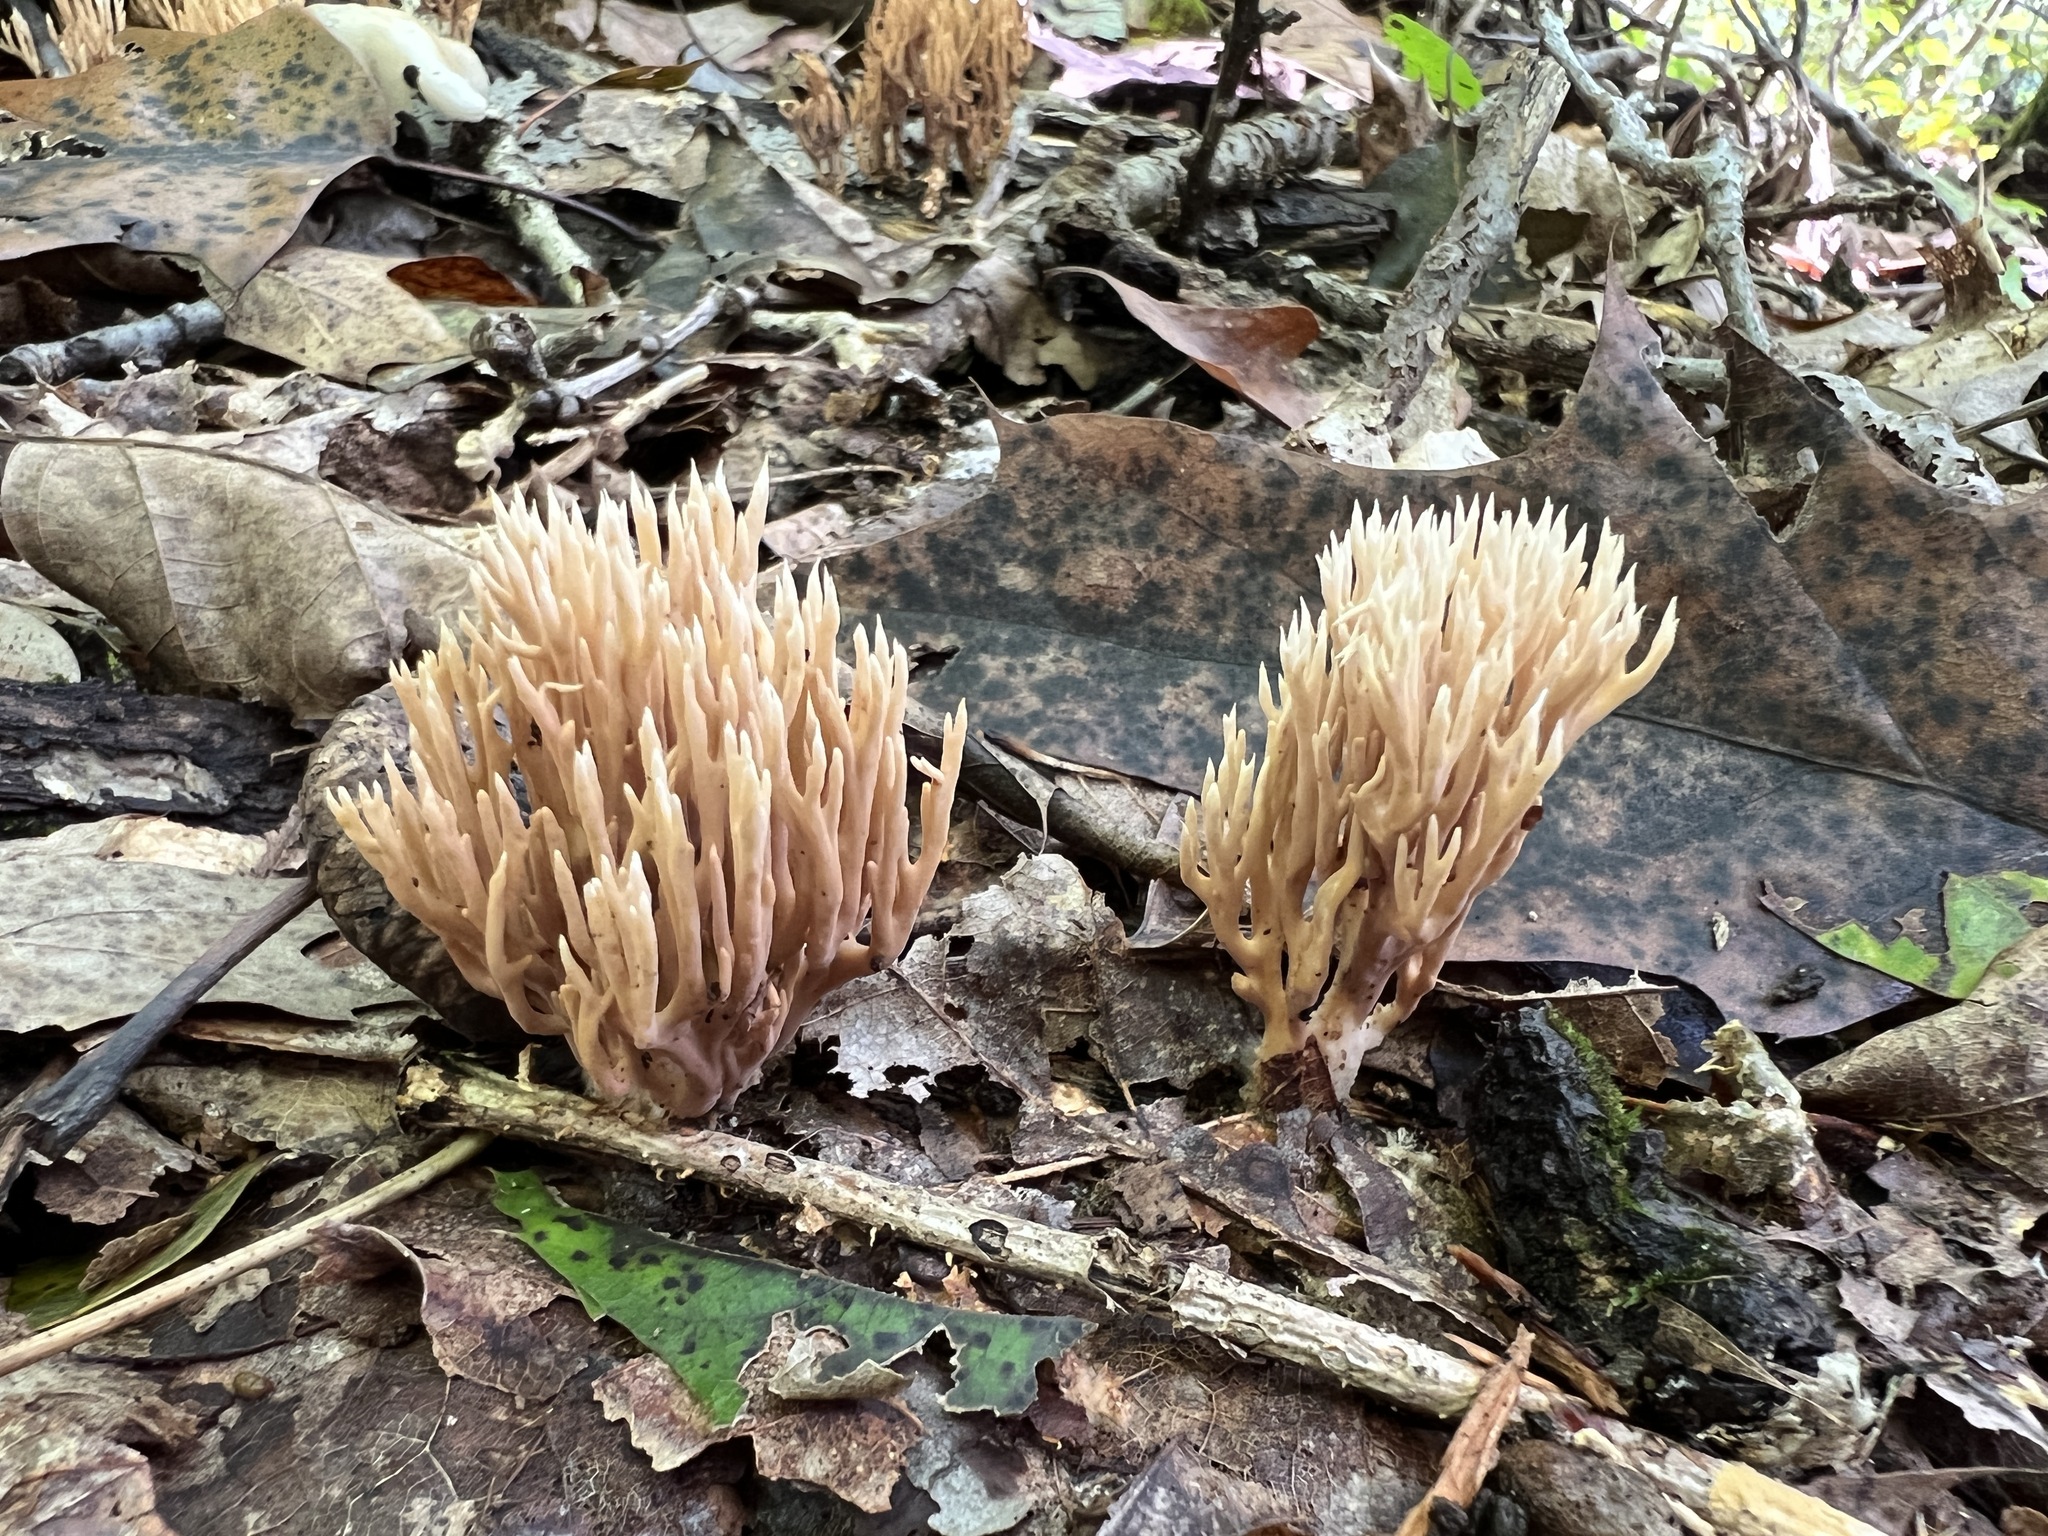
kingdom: Fungi
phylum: Basidiomycota
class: Agaricomycetes
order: Gomphales
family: Lentariaceae
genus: Lentaria
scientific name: Lentaria byssiseda
